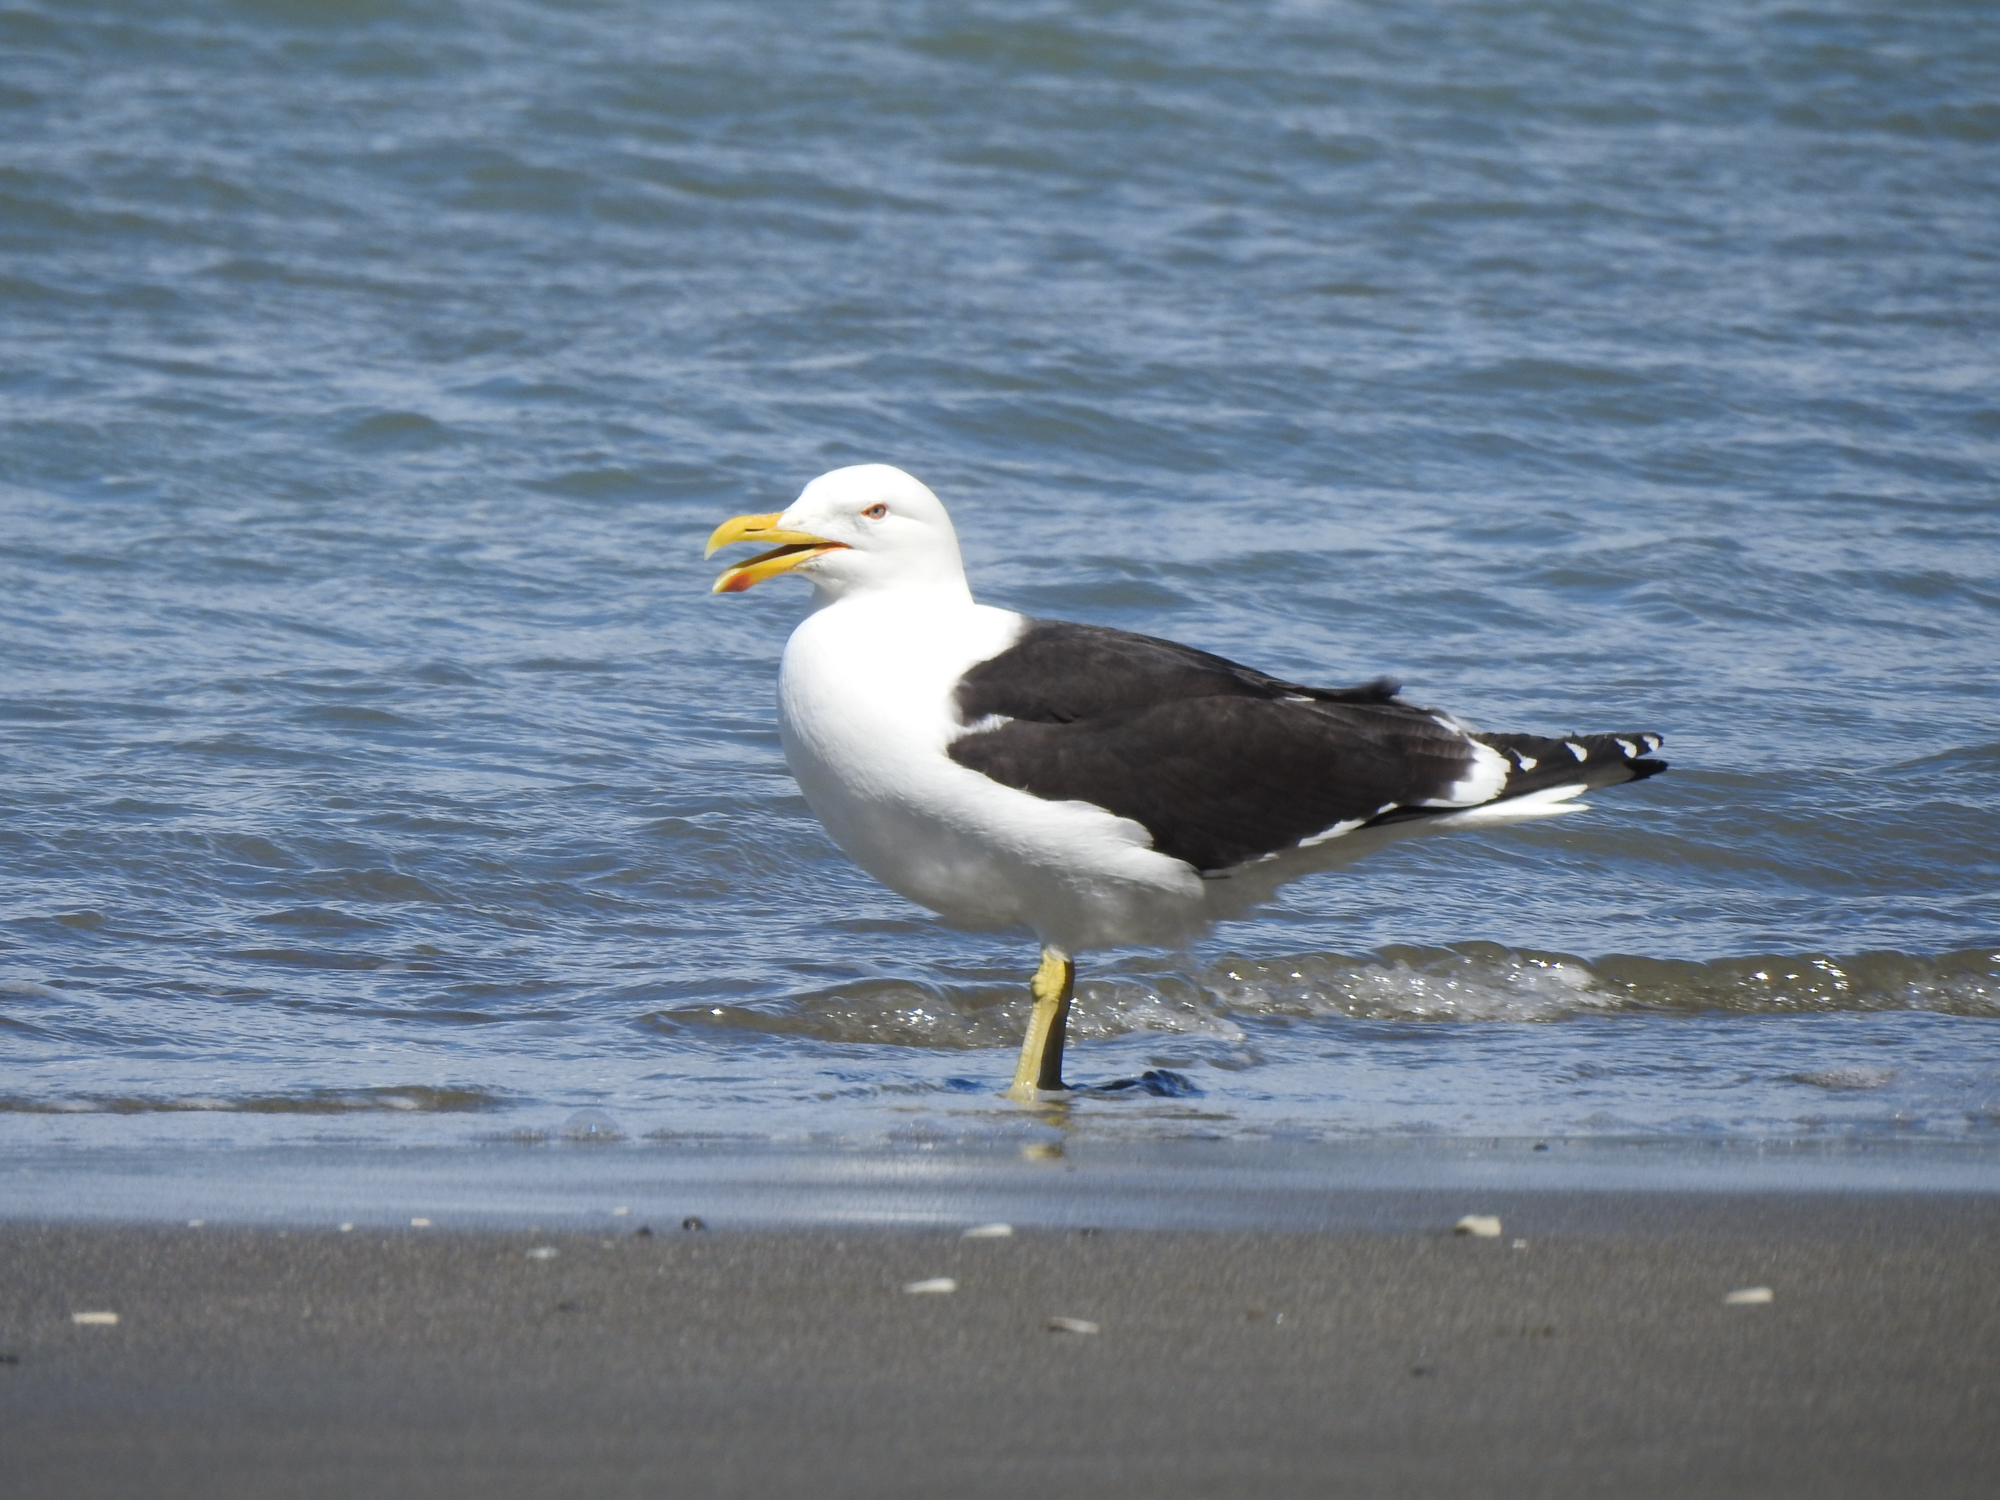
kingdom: Animalia
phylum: Chordata
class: Aves
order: Charadriiformes
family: Laridae
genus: Larus
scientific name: Larus dominicanus
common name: Kelp gull
